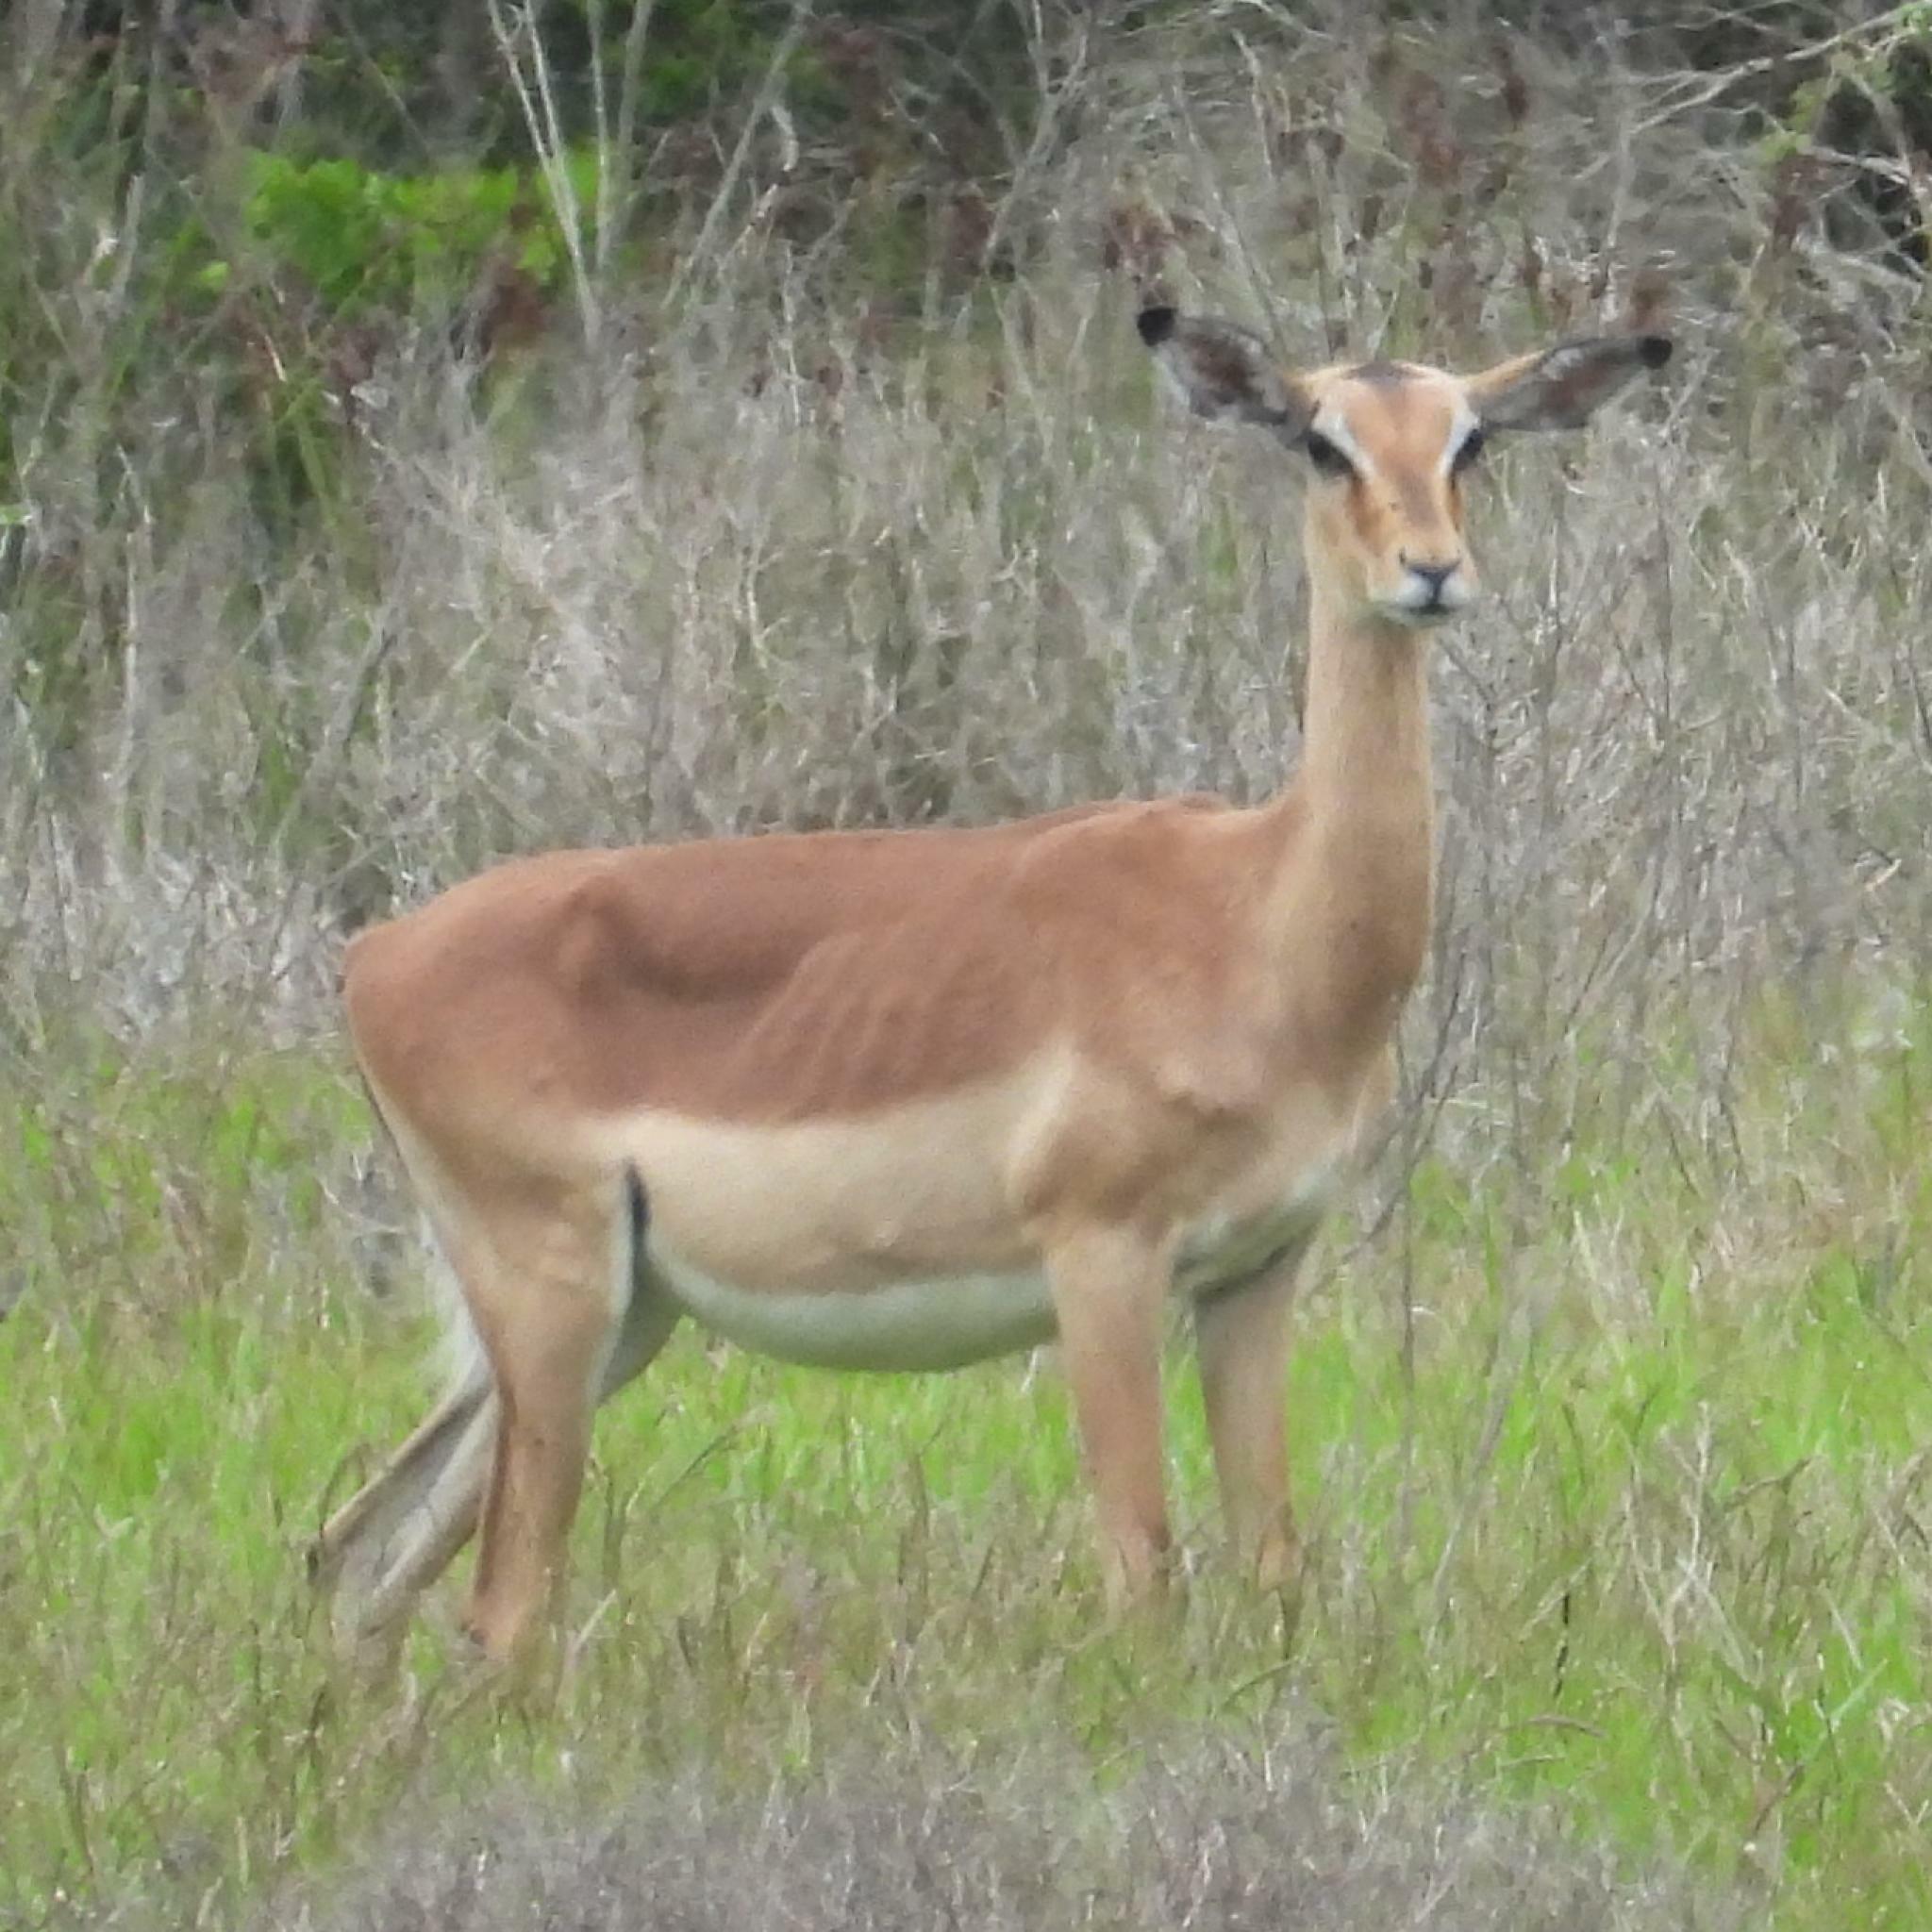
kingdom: Animalia
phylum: Chordata
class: Mammalia
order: Artiodactyla
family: Bovidae
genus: Aepyceros
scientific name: Aepyceros melampus
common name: Impala
